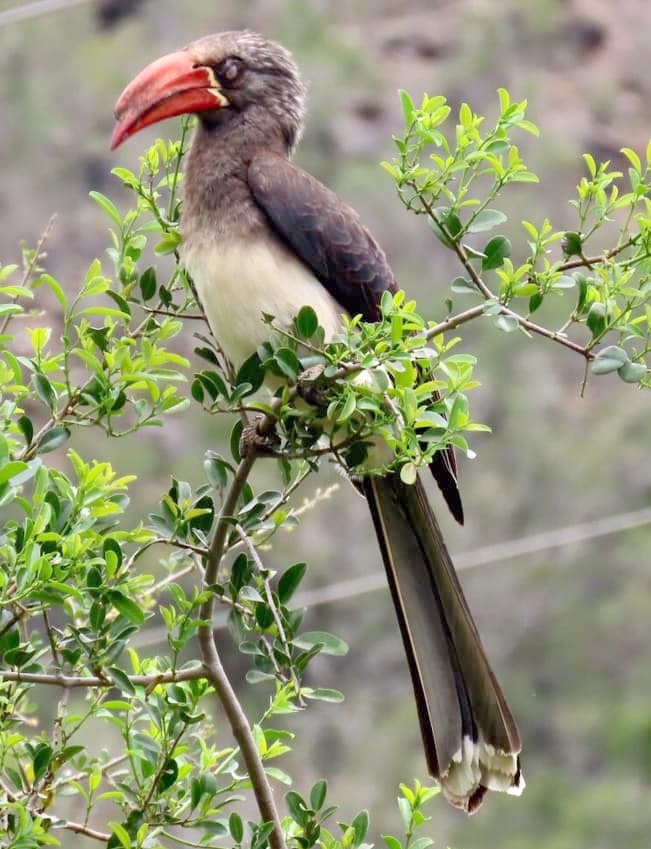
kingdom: Animalia
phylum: Chordata
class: Aves
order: Bucerotiformes
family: Bucerotidae
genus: Lophoceros
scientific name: Lophoceros alboterminatus
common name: Crowned hornbill
